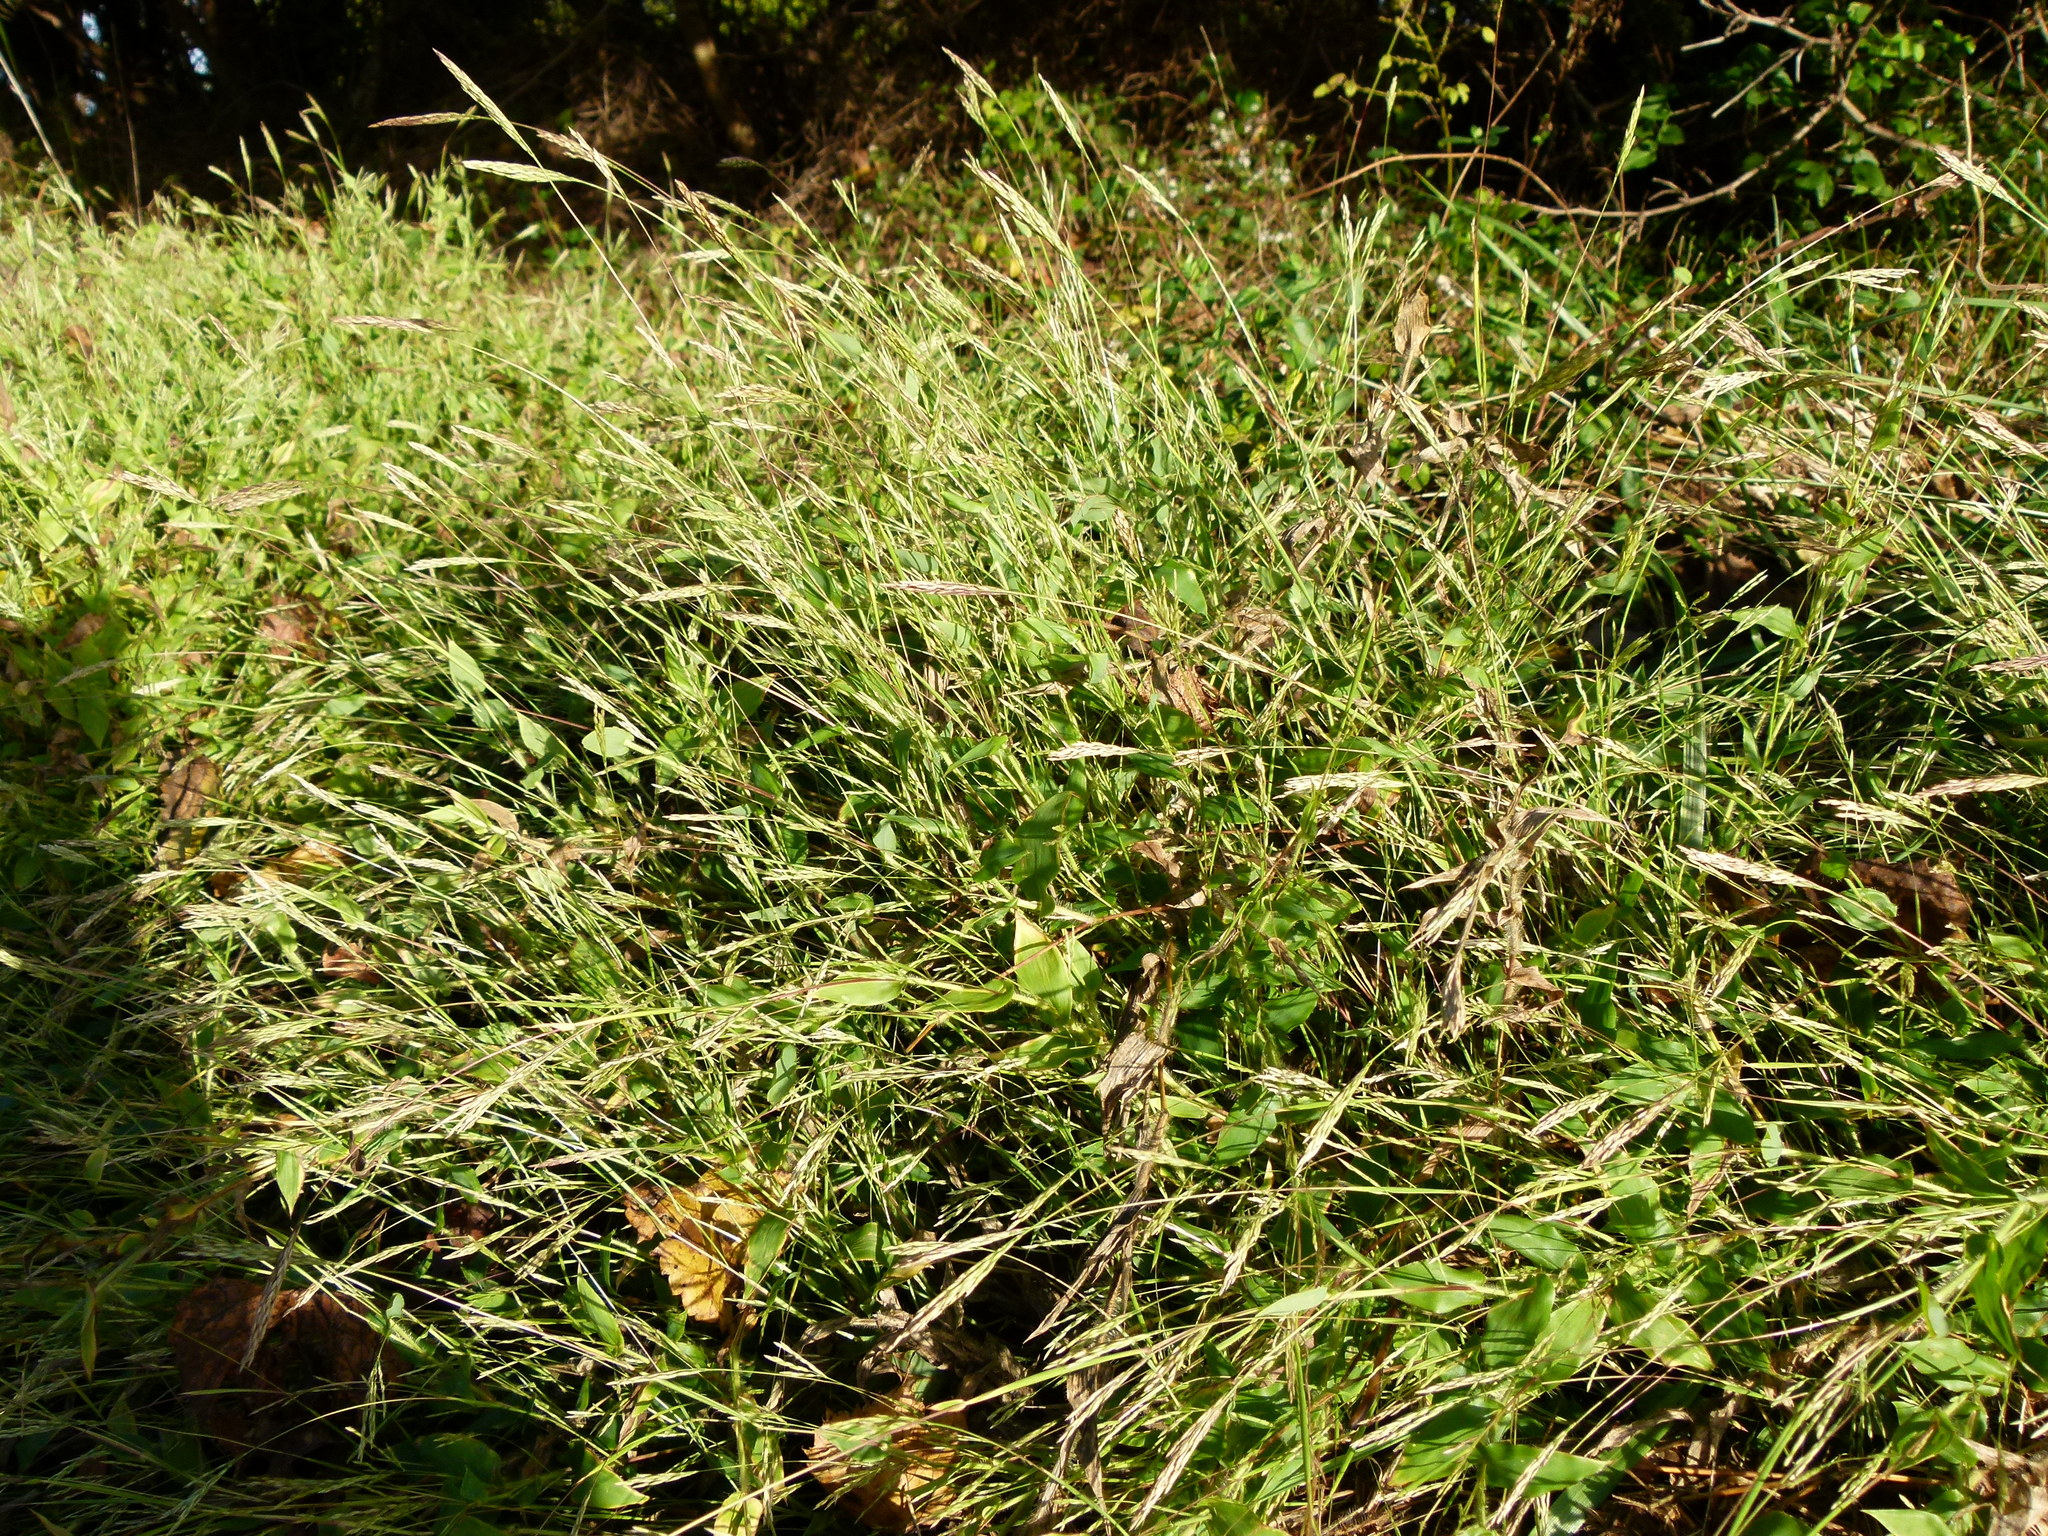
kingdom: Plantae
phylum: Tracheophyta
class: Liliopsida
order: Poales
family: Poaceae
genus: Arthraxon
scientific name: Arthraxon hispidus
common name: Small carpgrass
